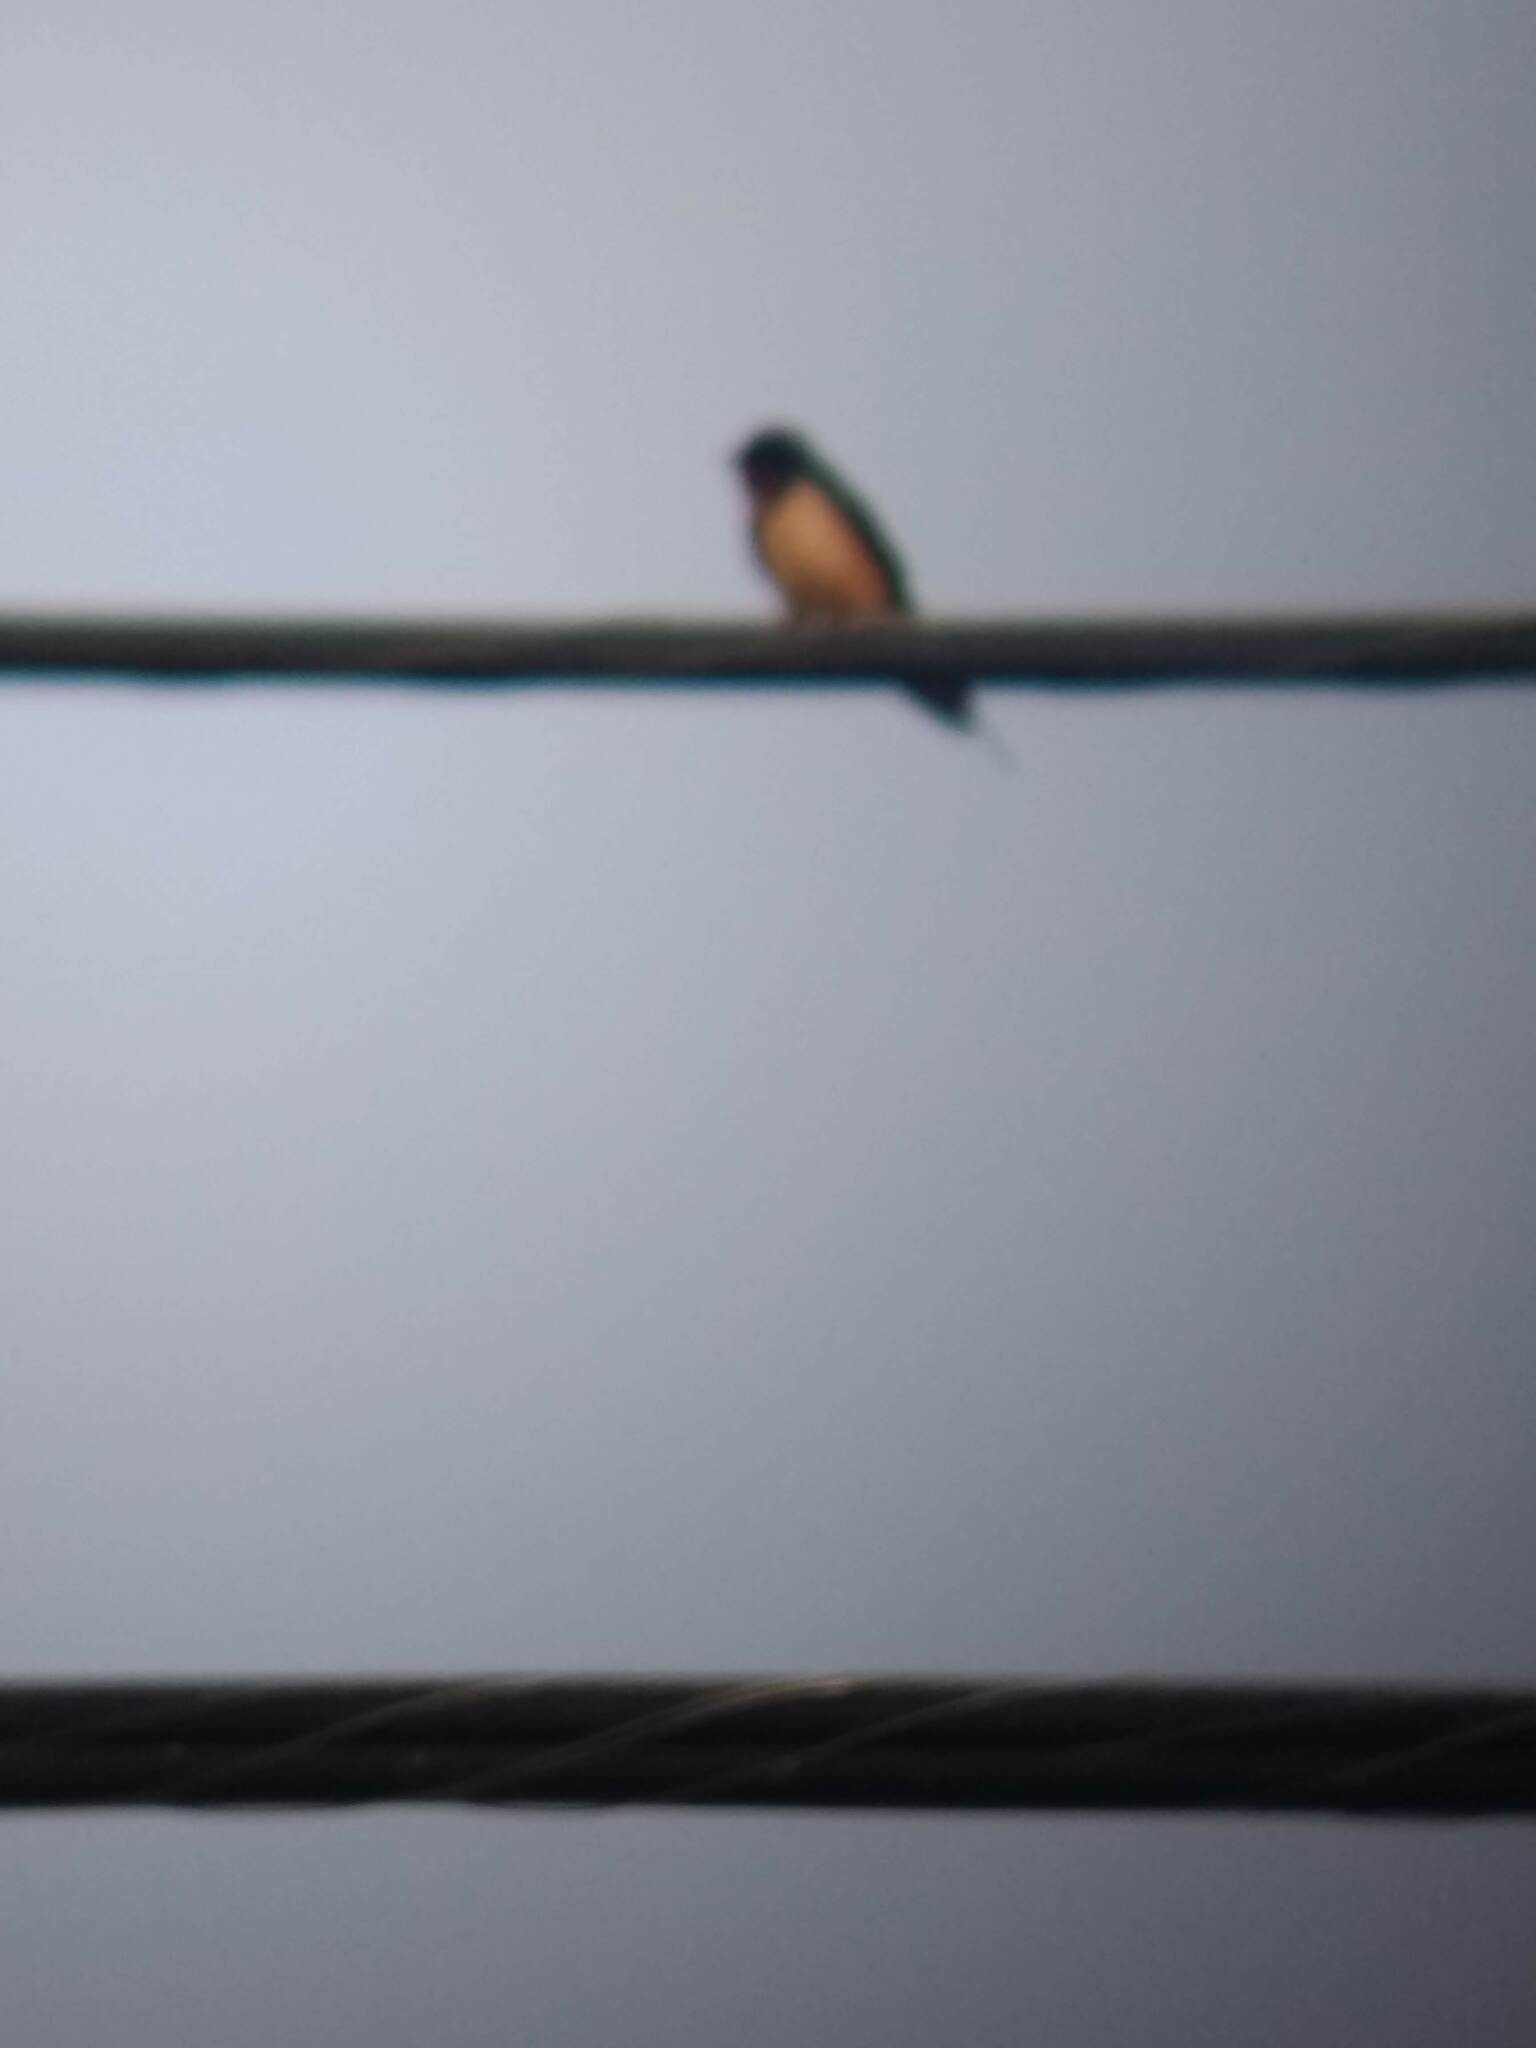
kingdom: Animalia
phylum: Chordata
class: Aves
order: Passeriformes
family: Hirundinidae
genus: Hirundo
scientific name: Hirundo rustica
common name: Barn swallow
